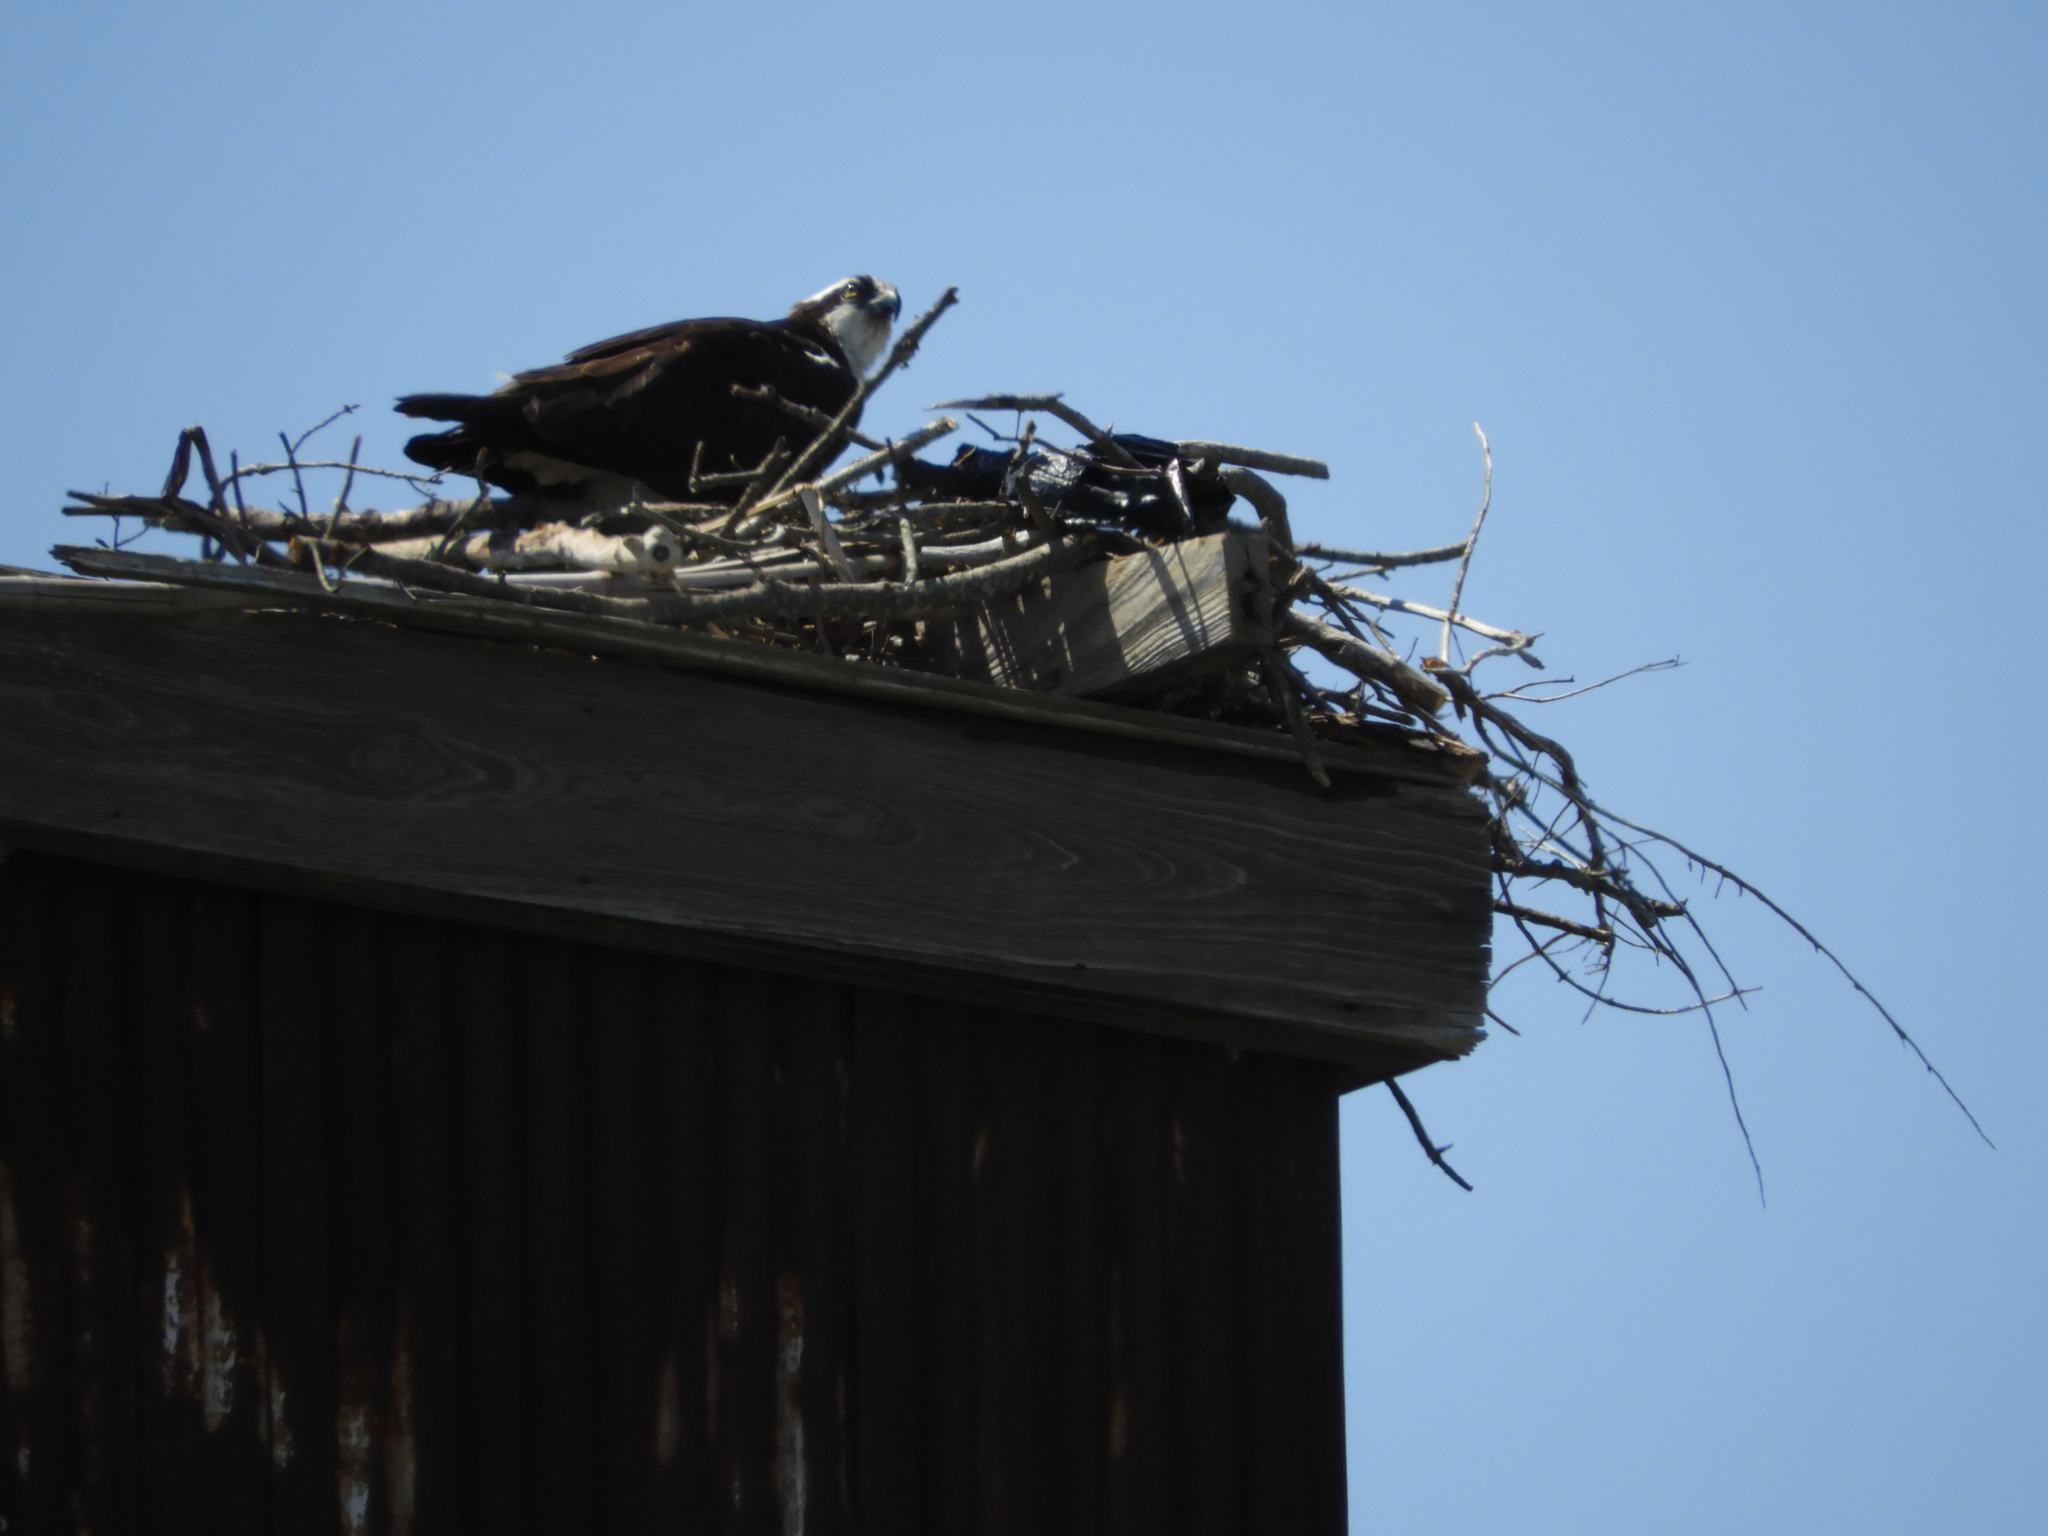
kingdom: Animalia
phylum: Chordata
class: Aves
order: Accipitriformes
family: Pandionidae
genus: Pandion
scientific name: Pandion haliaetus
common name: Osprey
